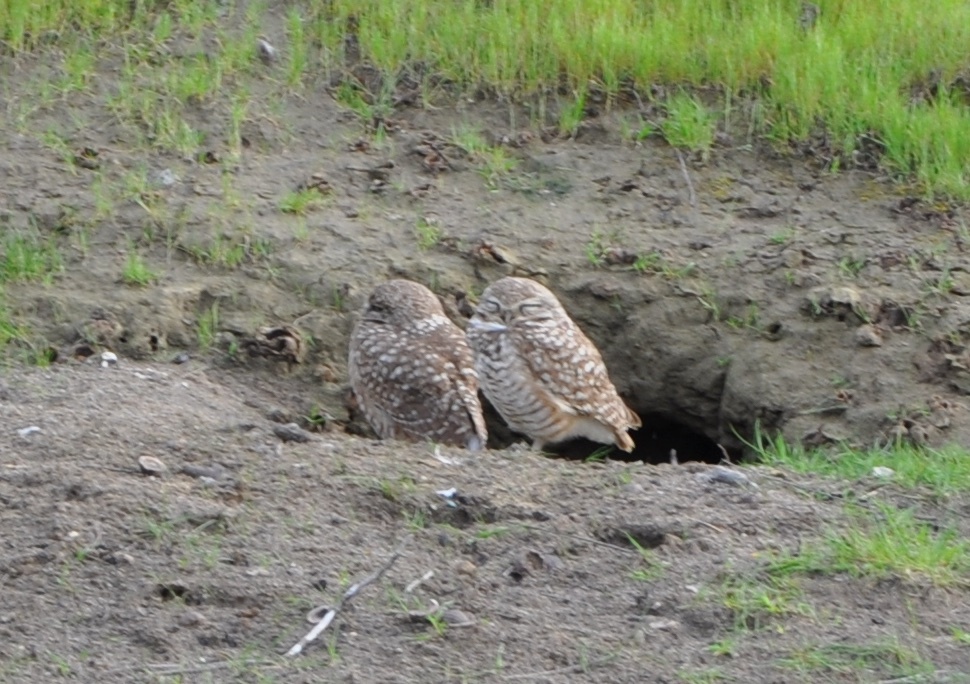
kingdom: Animalia
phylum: Chordata
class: Aves
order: Strigiformes
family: Strigidae
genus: Athene
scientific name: Athene cunicularia
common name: Burrowing owl
